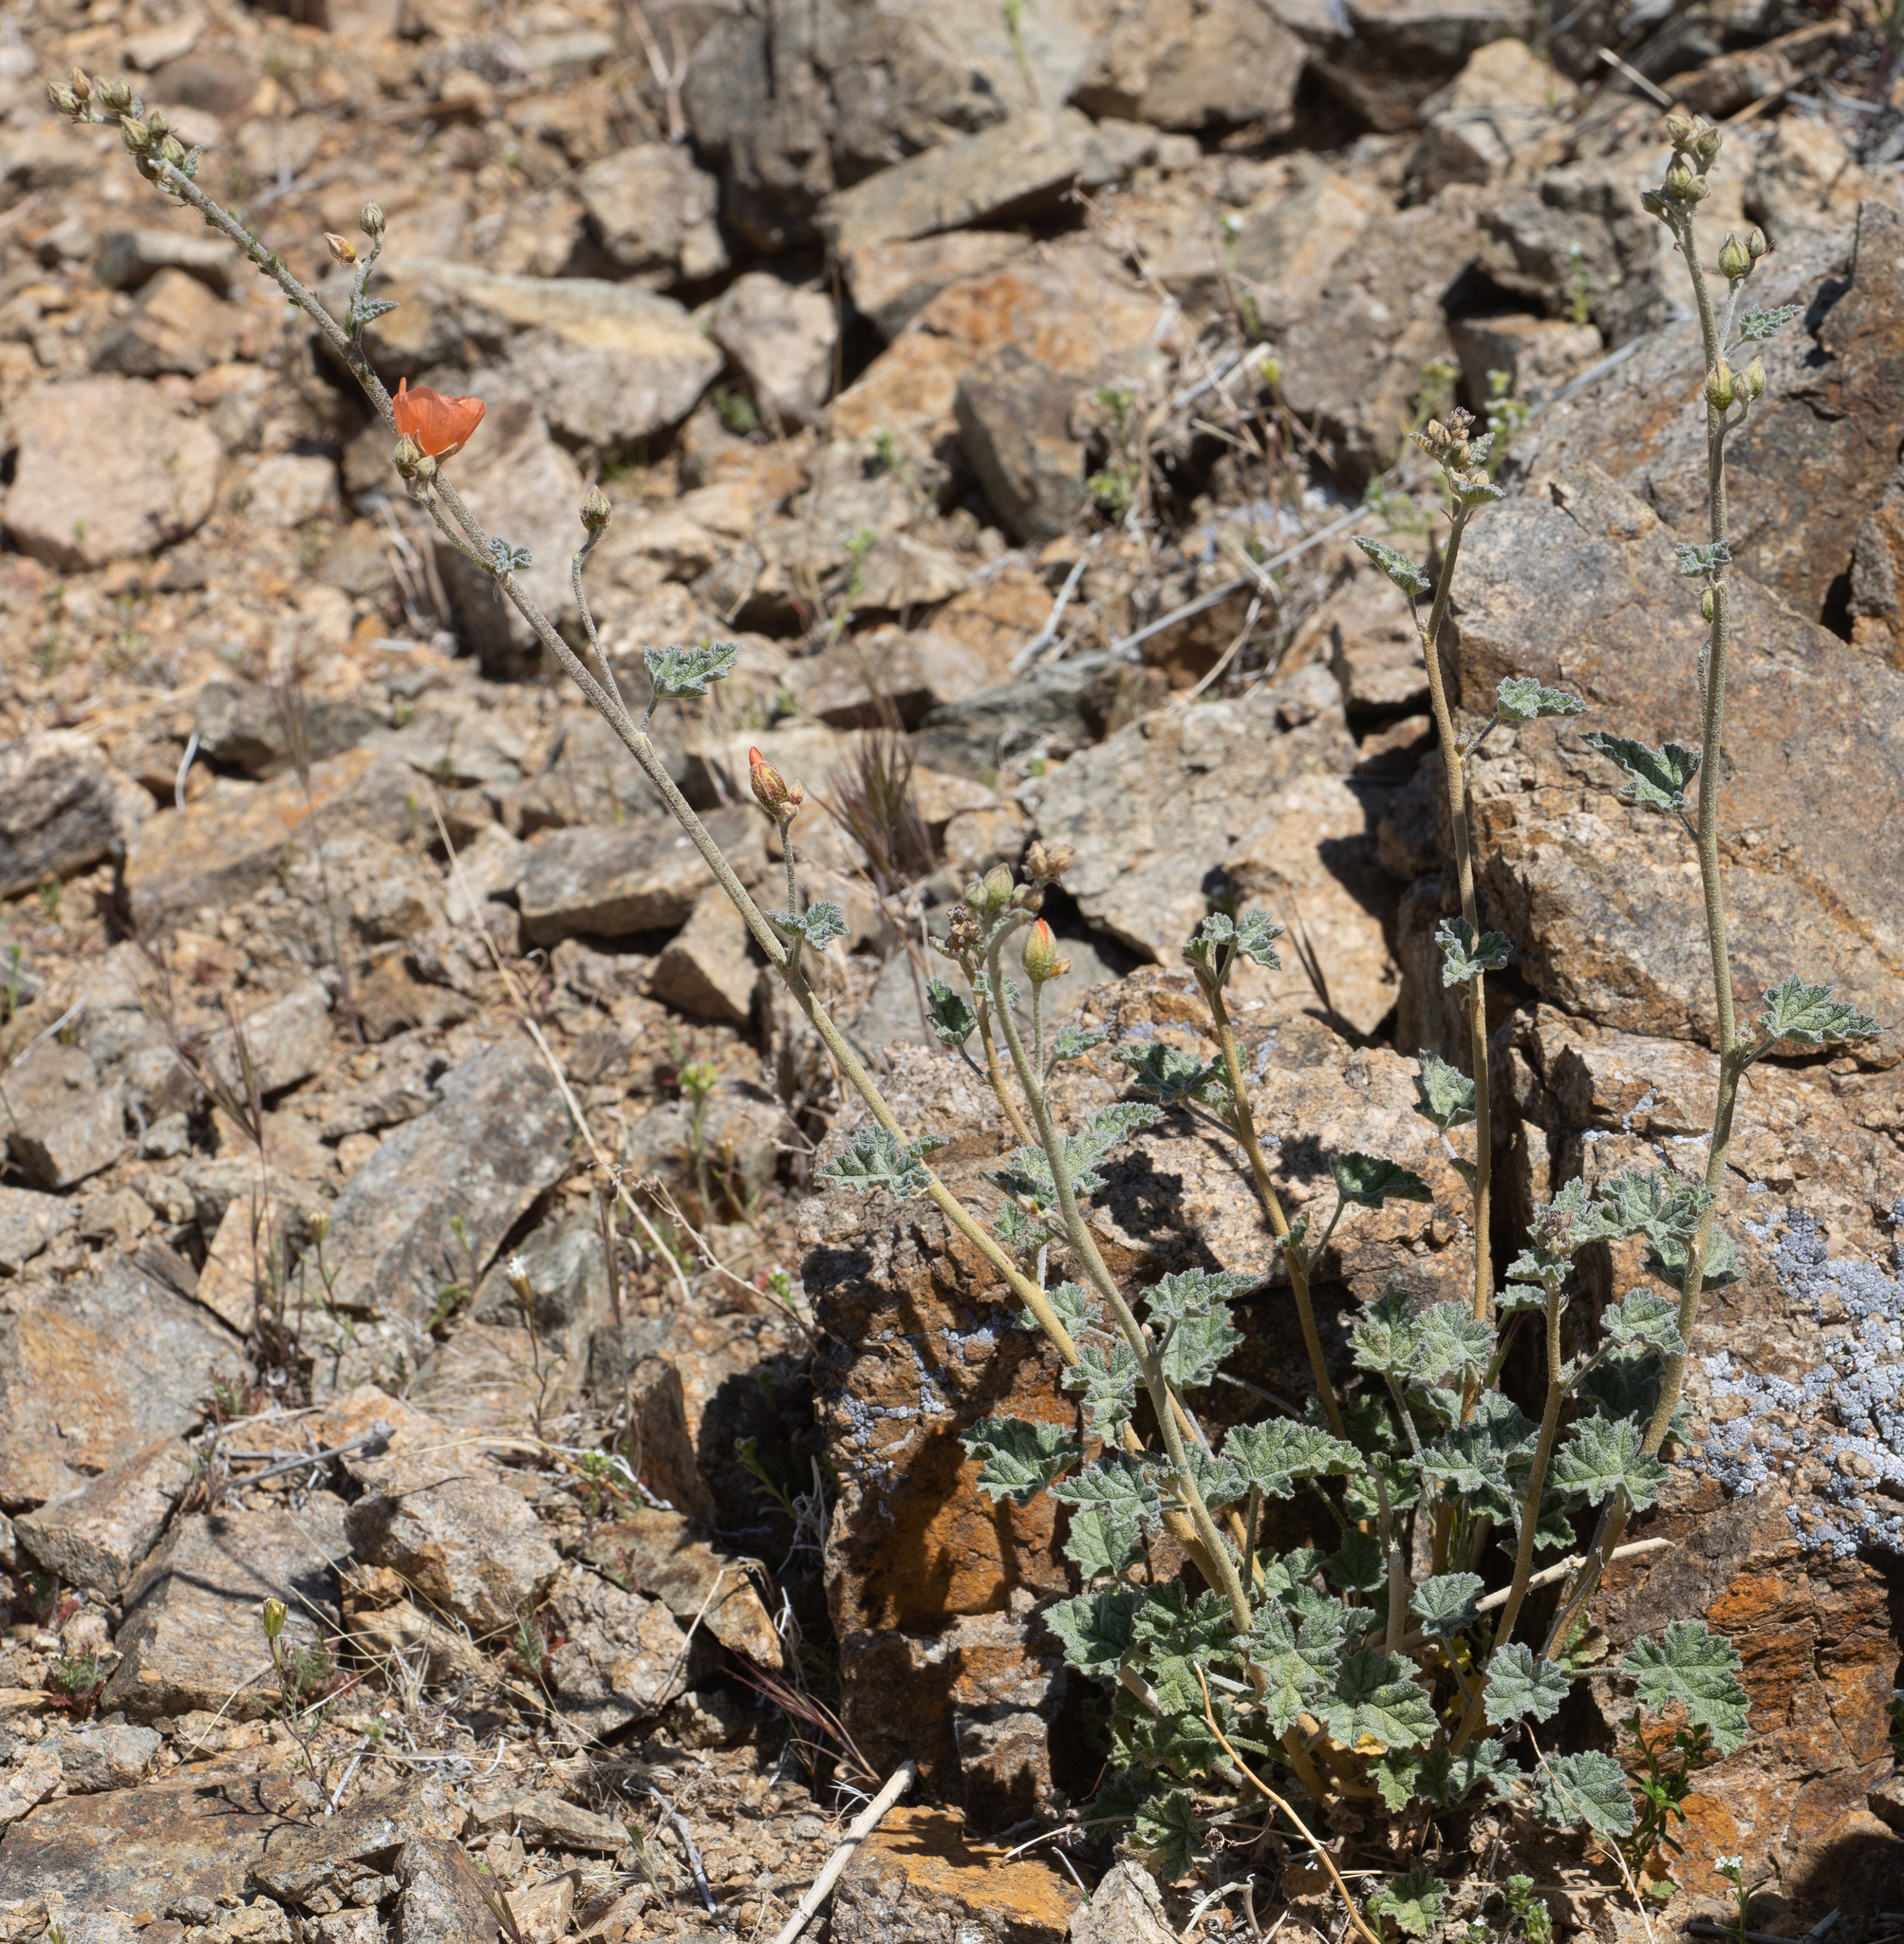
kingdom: Plantae
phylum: Tracheophyta
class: Magnoliopsida
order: Malvales
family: Malvaceae
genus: Sphaeralcea
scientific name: Sphaeralcea ambigua
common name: Apricot globe-mallow
